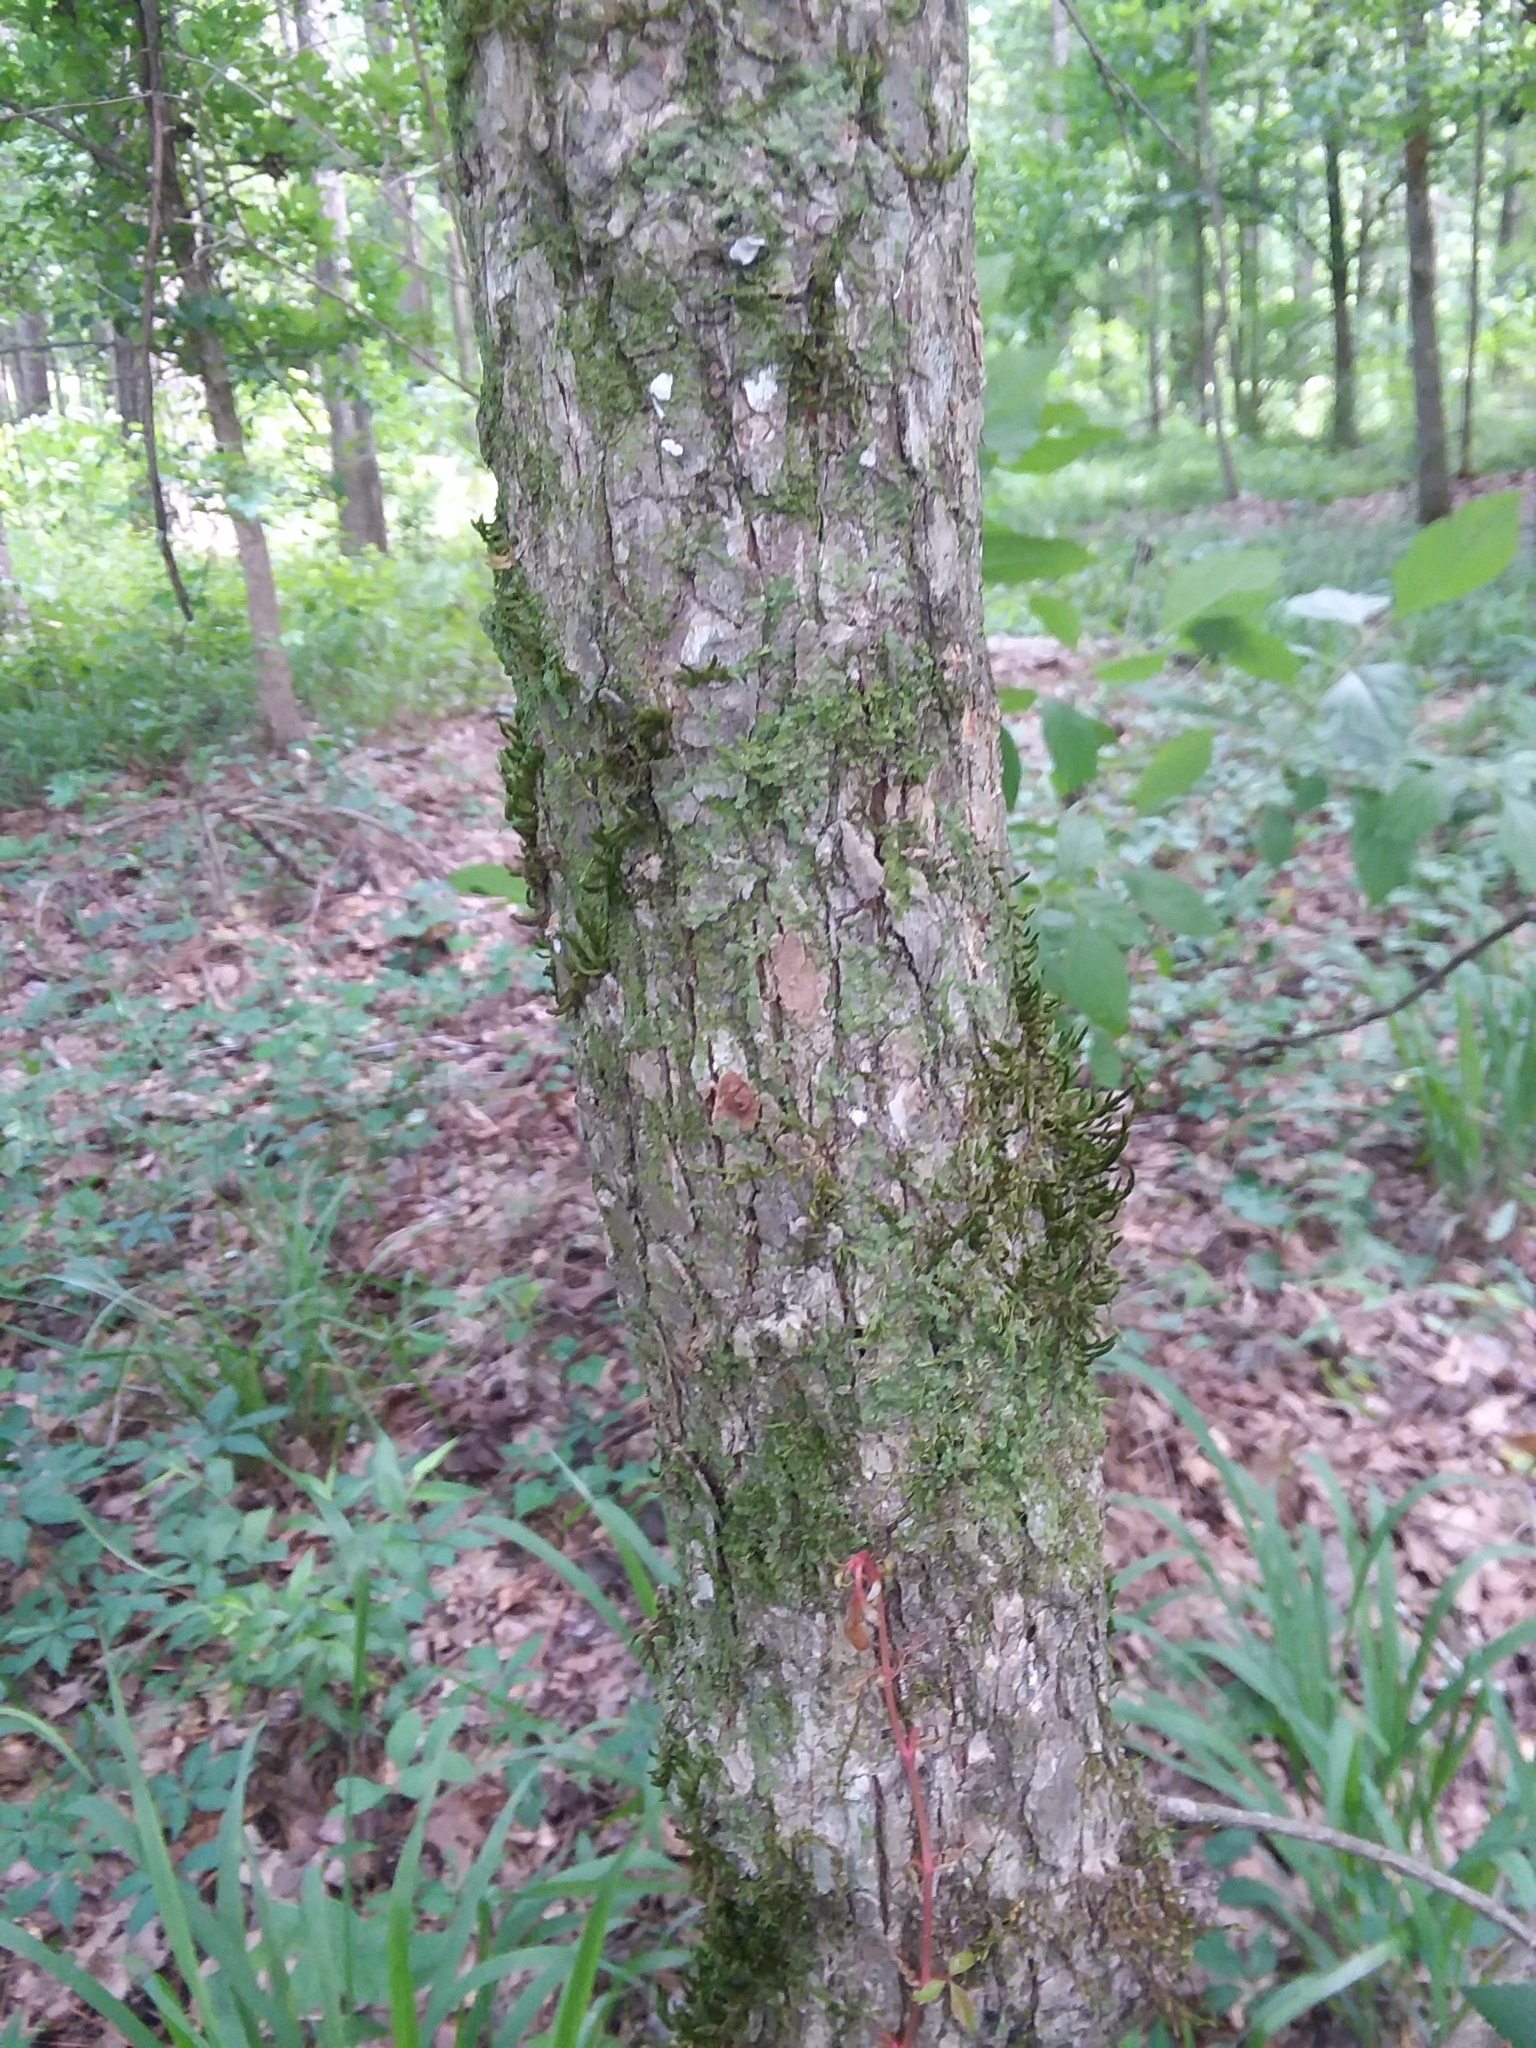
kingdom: Plantae
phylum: Tracheophyta
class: Magnoliopsida
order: Rosales
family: Ulmaceae
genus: Ulmus
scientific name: Ulmus alata
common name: Winged elm
